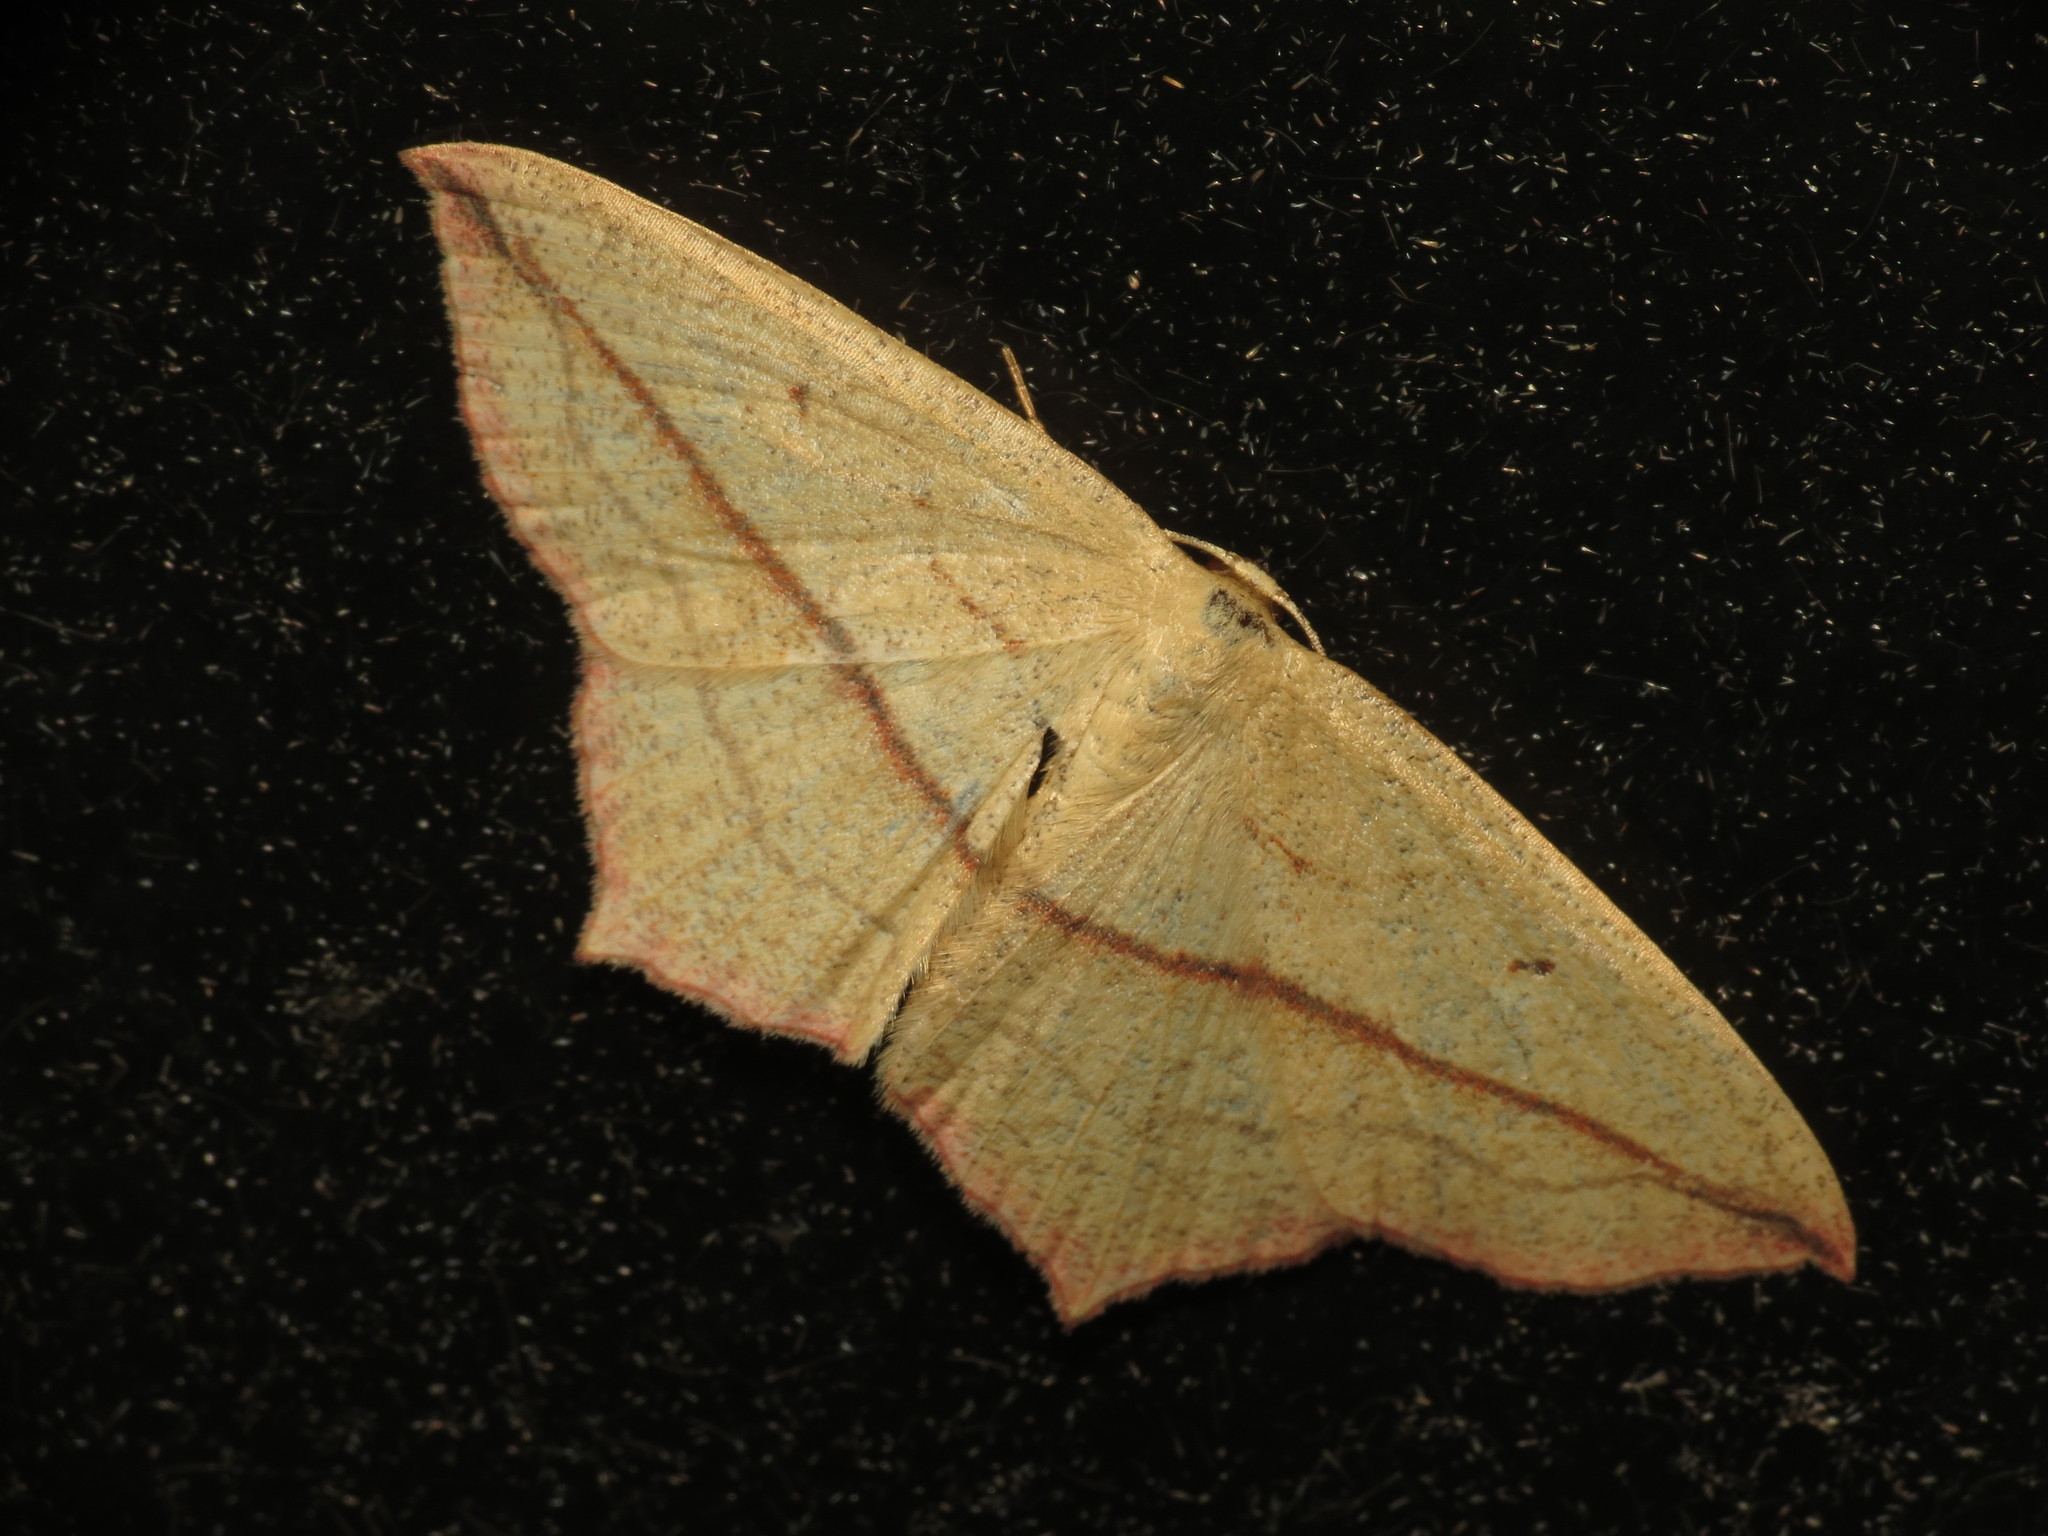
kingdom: Animalia
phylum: Arthropoda
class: Insecta
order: Lepidoptera
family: Geometridae
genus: Timandra
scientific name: Timandra comae
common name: Blood-vein
